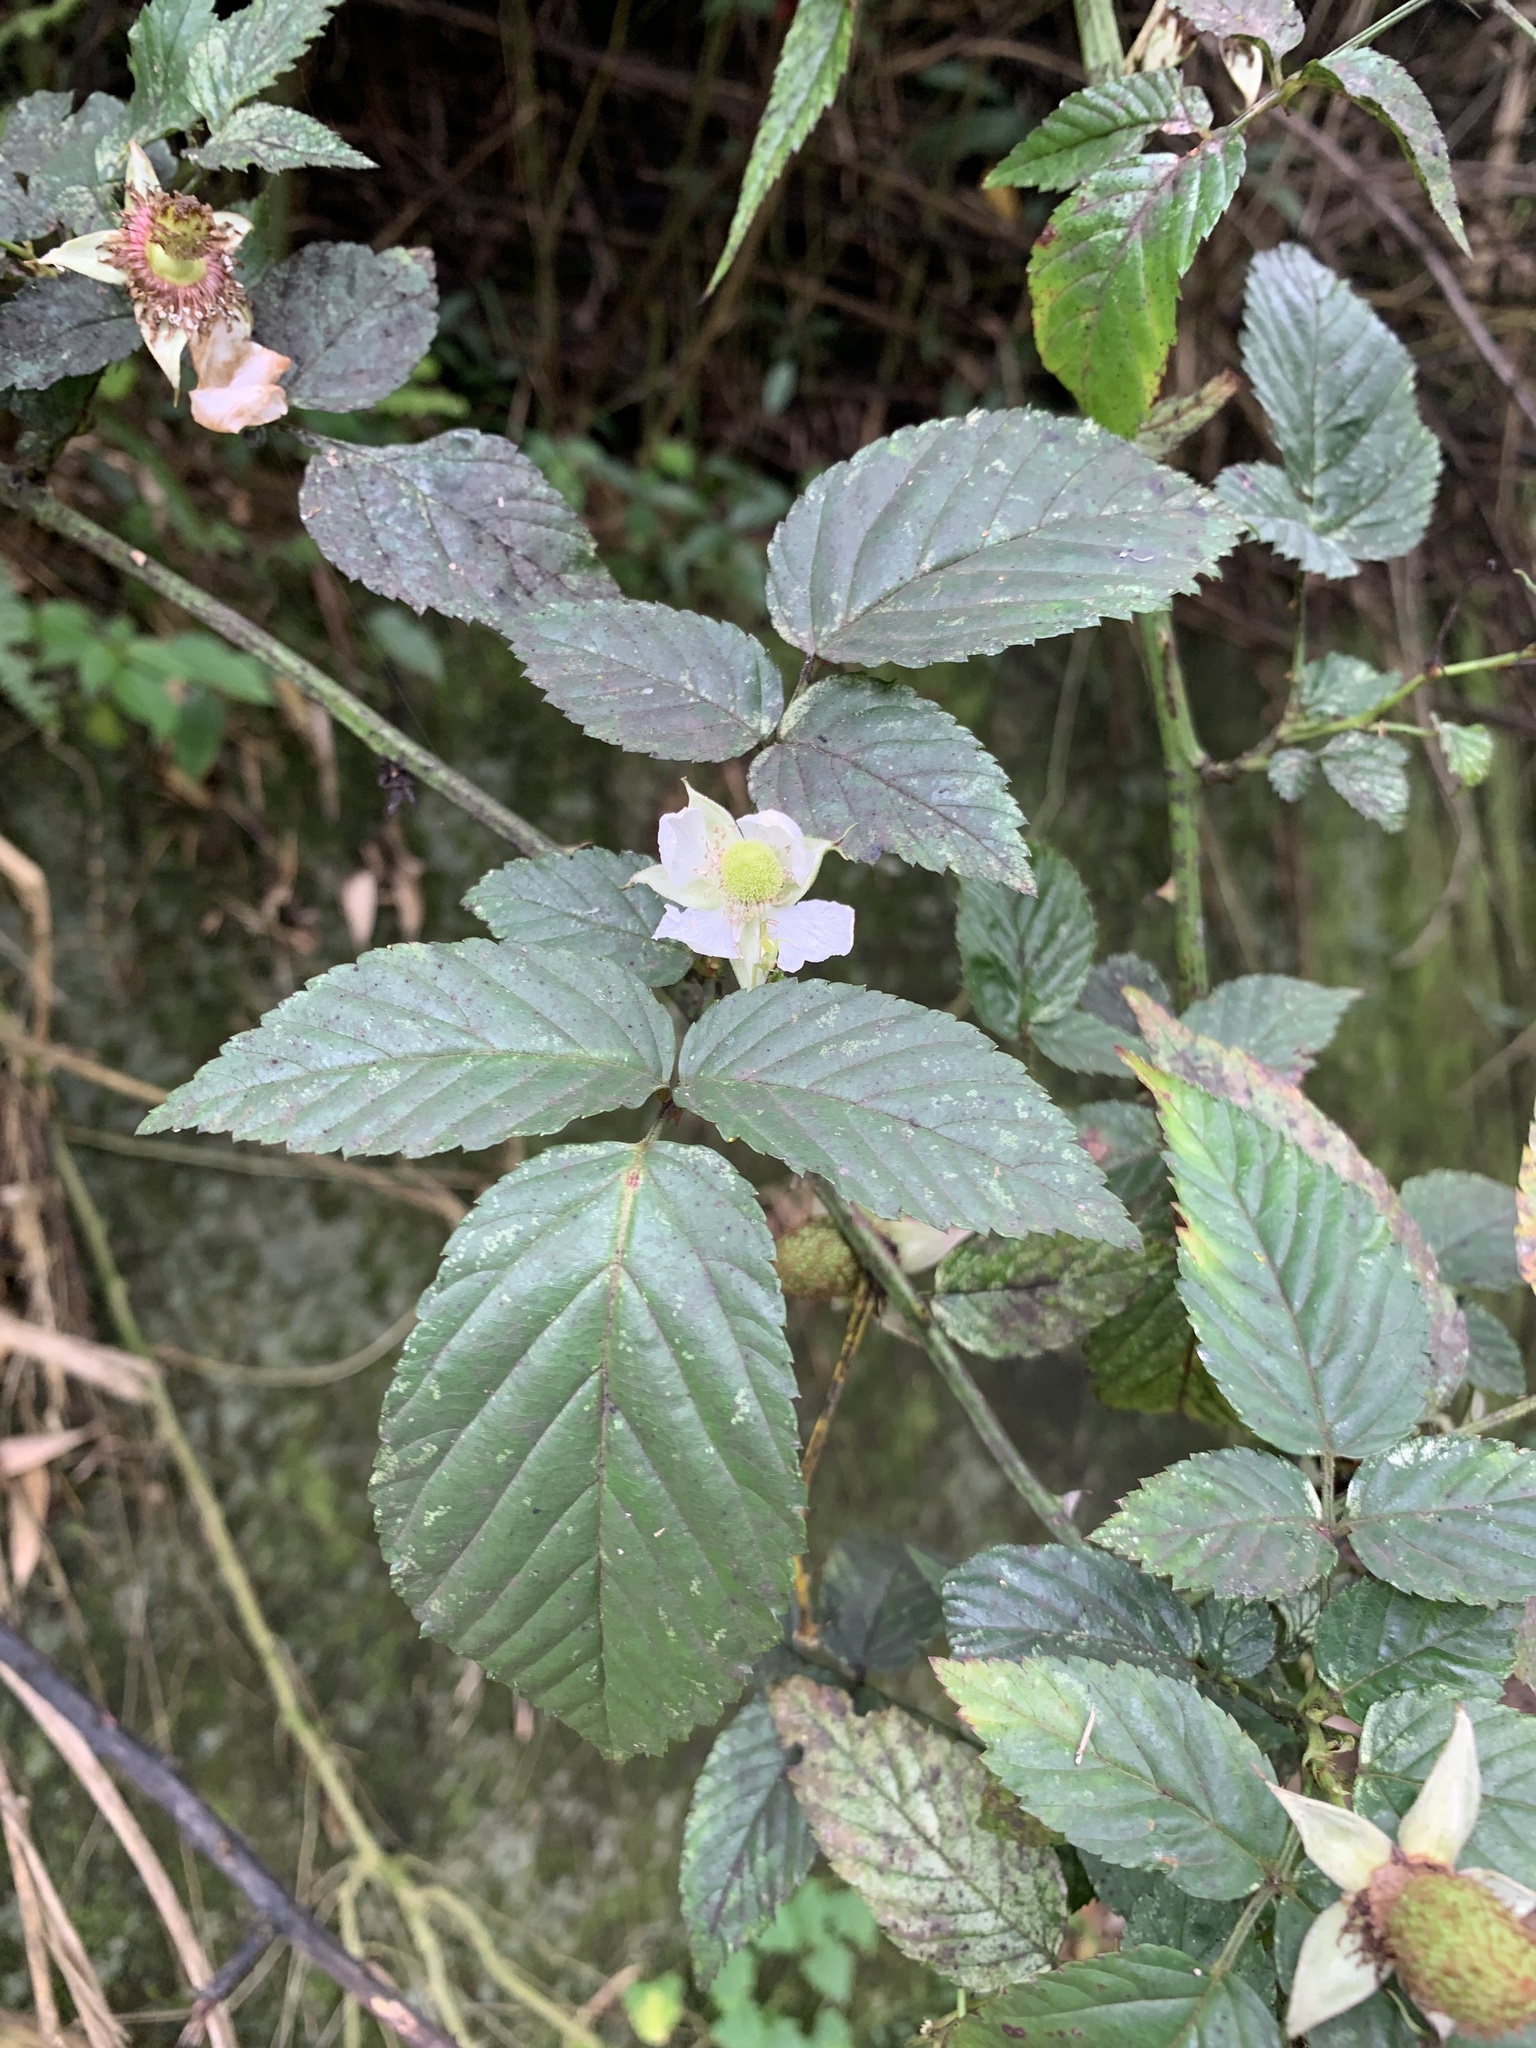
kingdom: Plantae
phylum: Tracheophyta
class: Magnoliopsida
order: Rosales
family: Rosaceae
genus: Rubus
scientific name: Rubus croceacanthus
